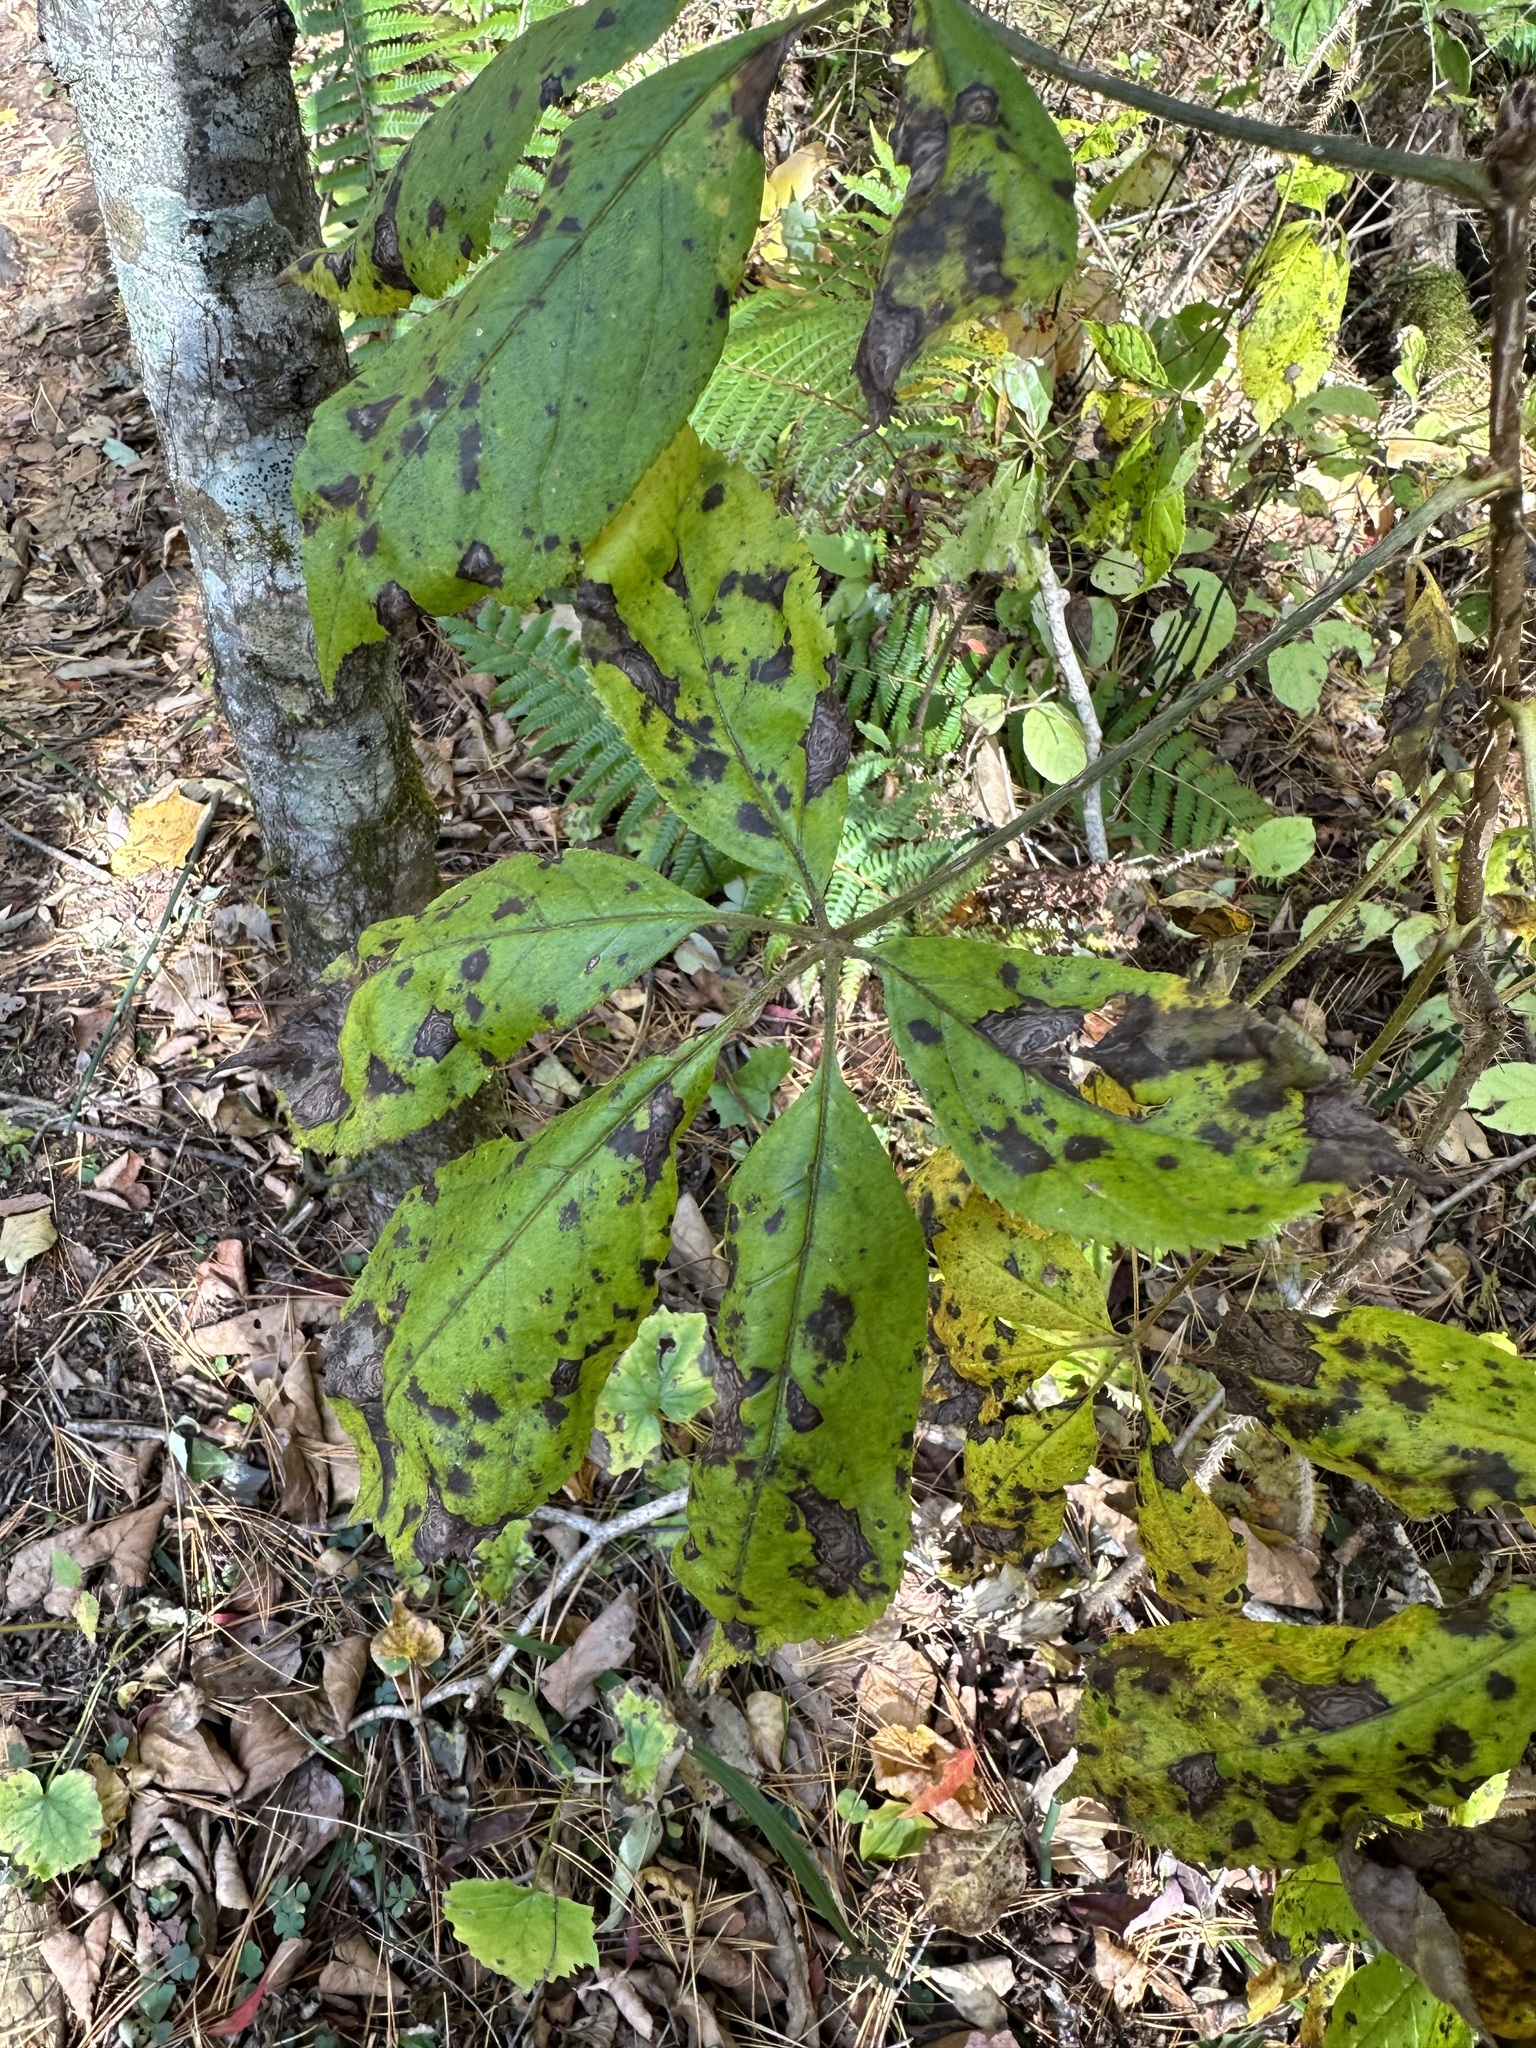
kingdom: Plantae
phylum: Tracheophyta
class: Magnoliopsida
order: Apiales
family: Araliaceae
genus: Eleutherococcus
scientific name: Eleutherococcus senticosus
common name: Siberian-ginseng
